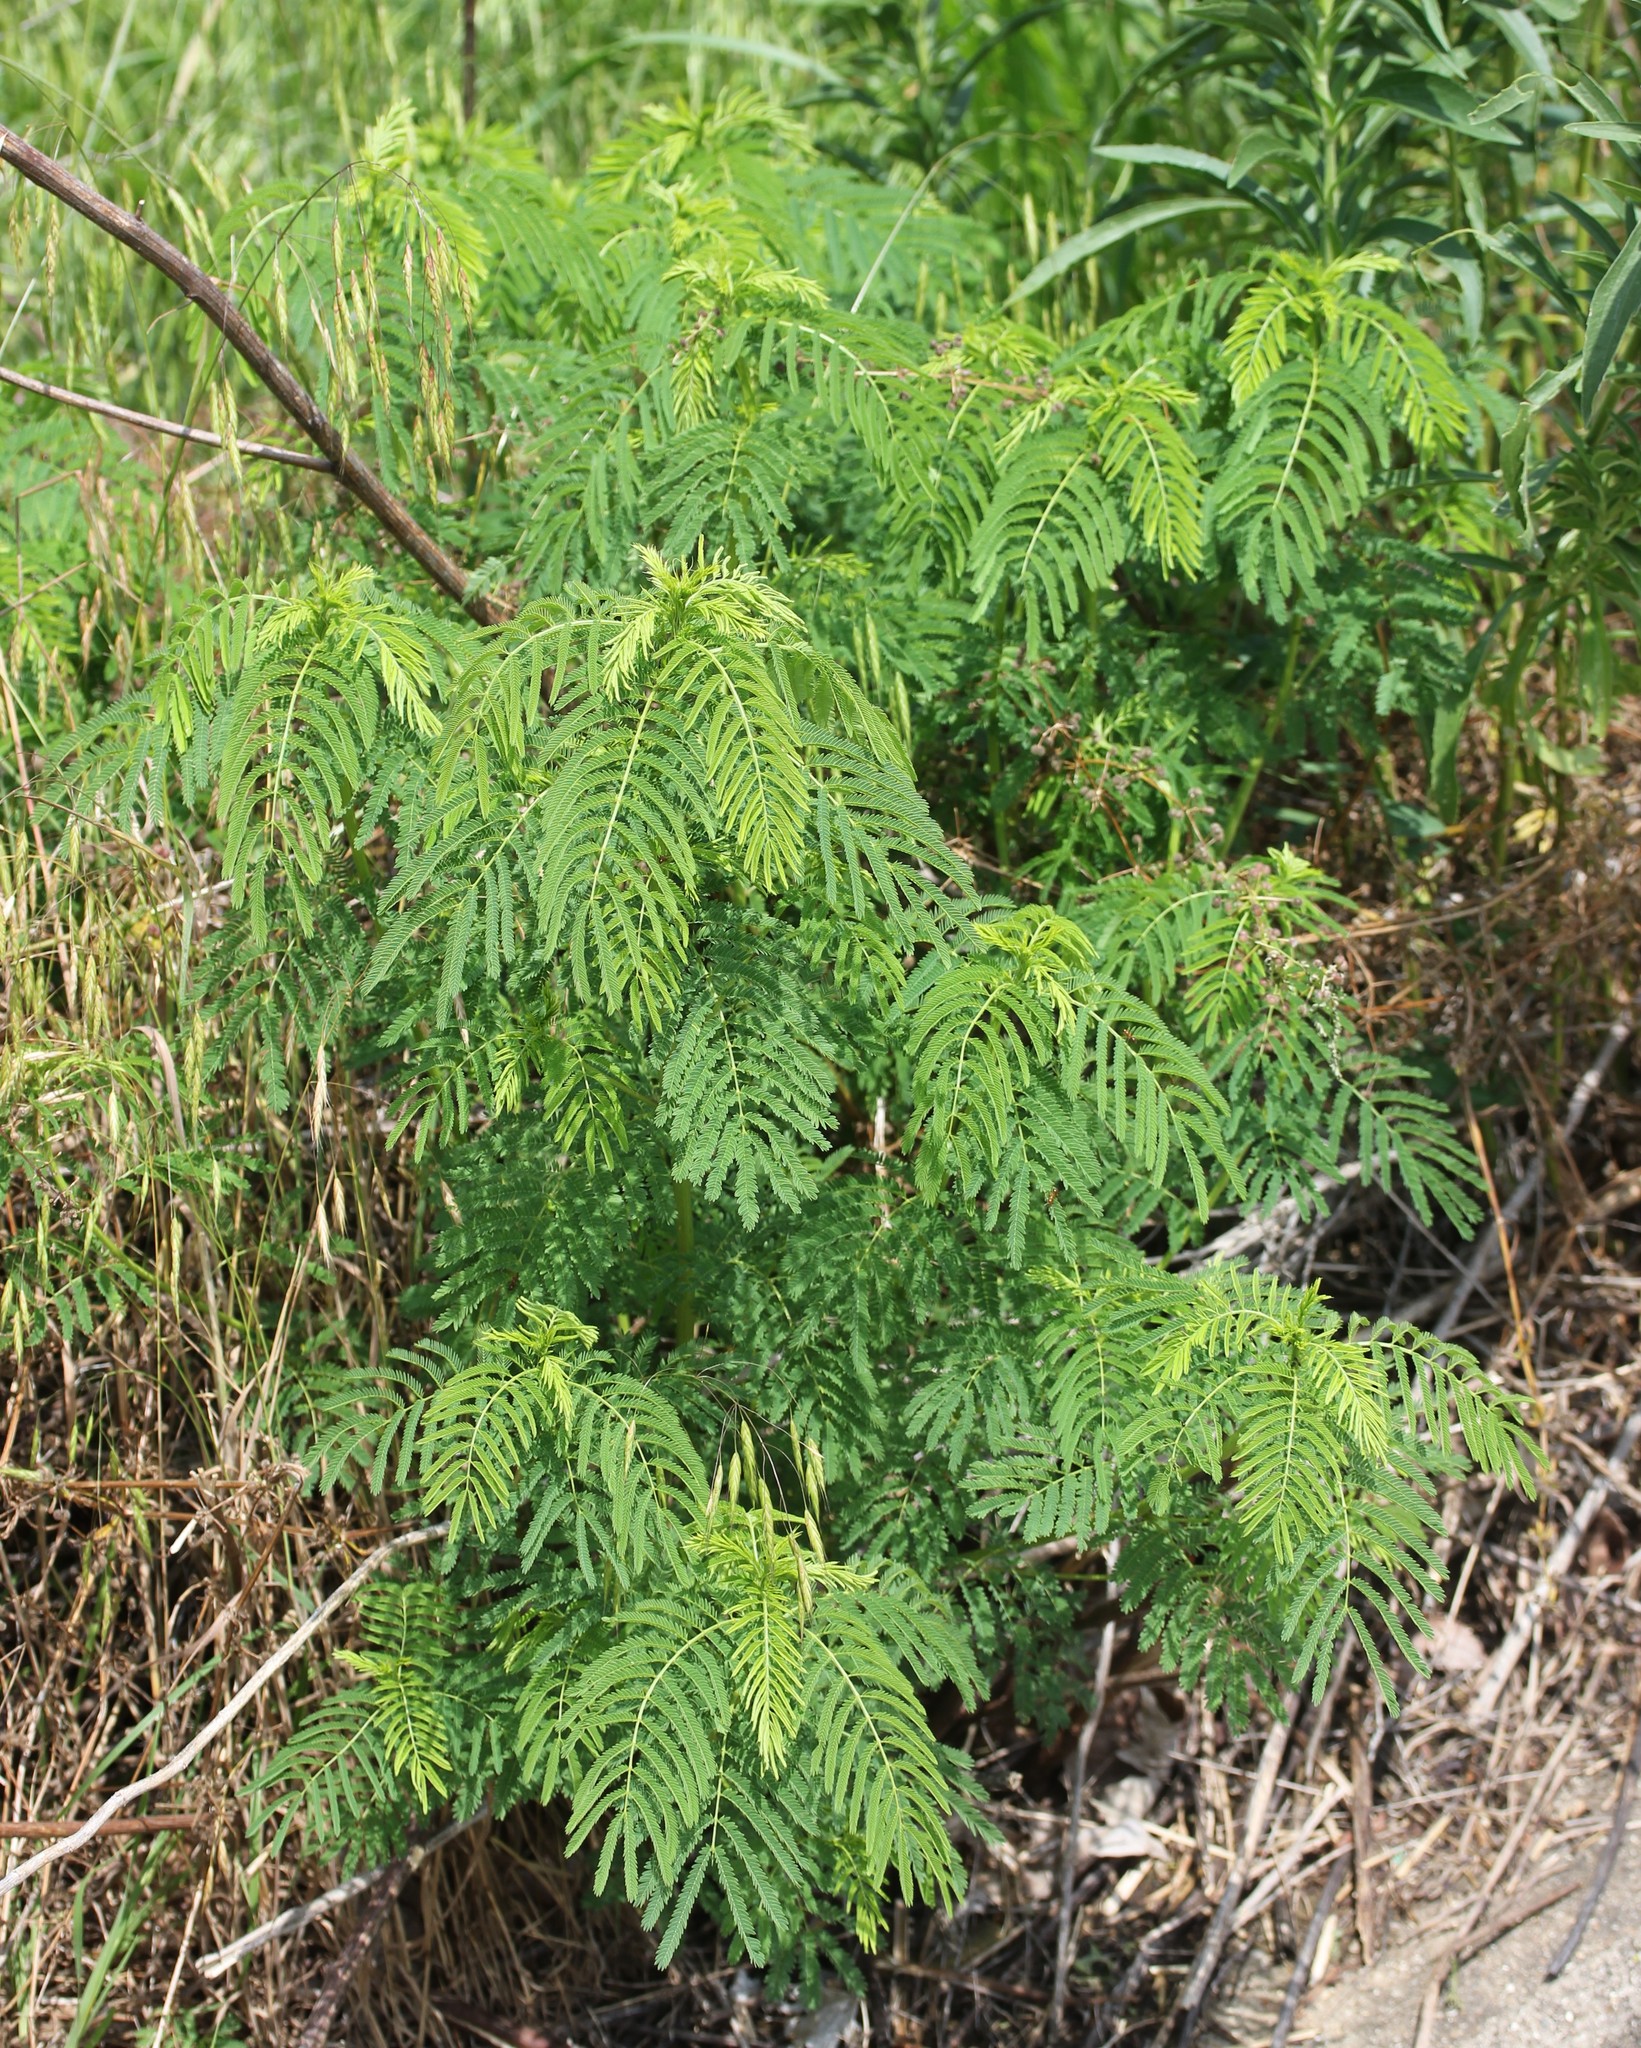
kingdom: Plantae
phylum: Tracheophyta
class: Magnoliopsida
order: Fabales
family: Fabaceae
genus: Desmanthus
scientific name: Desmanthus illinoensis
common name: Illinois bundle-flower
